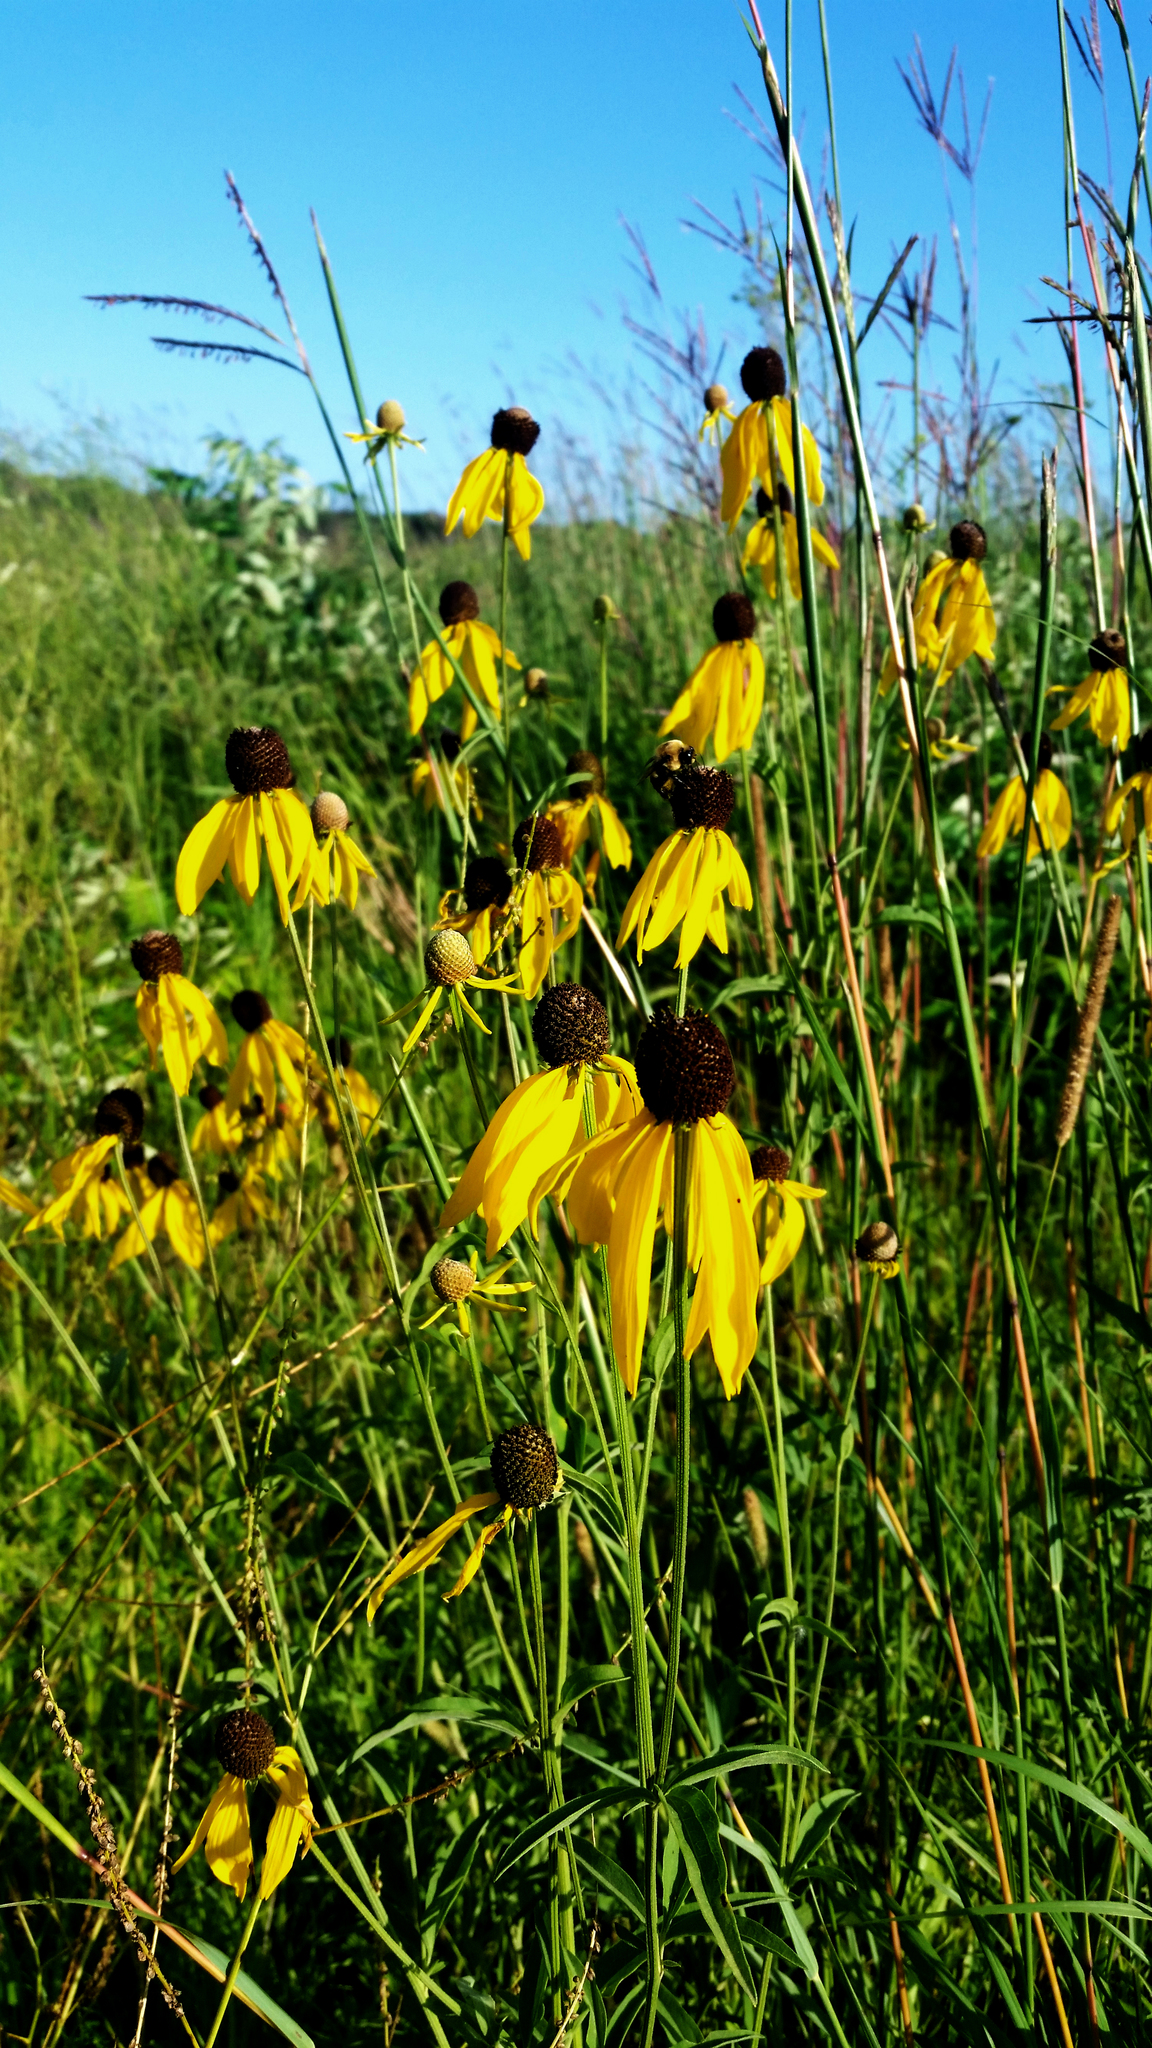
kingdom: Plantae
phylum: Tracheophyta
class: Magnoliopsida
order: Asterales
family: Asteraceae
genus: Ratibida
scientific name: Ratibida pinnata
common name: Drooping prairie-coneflower
